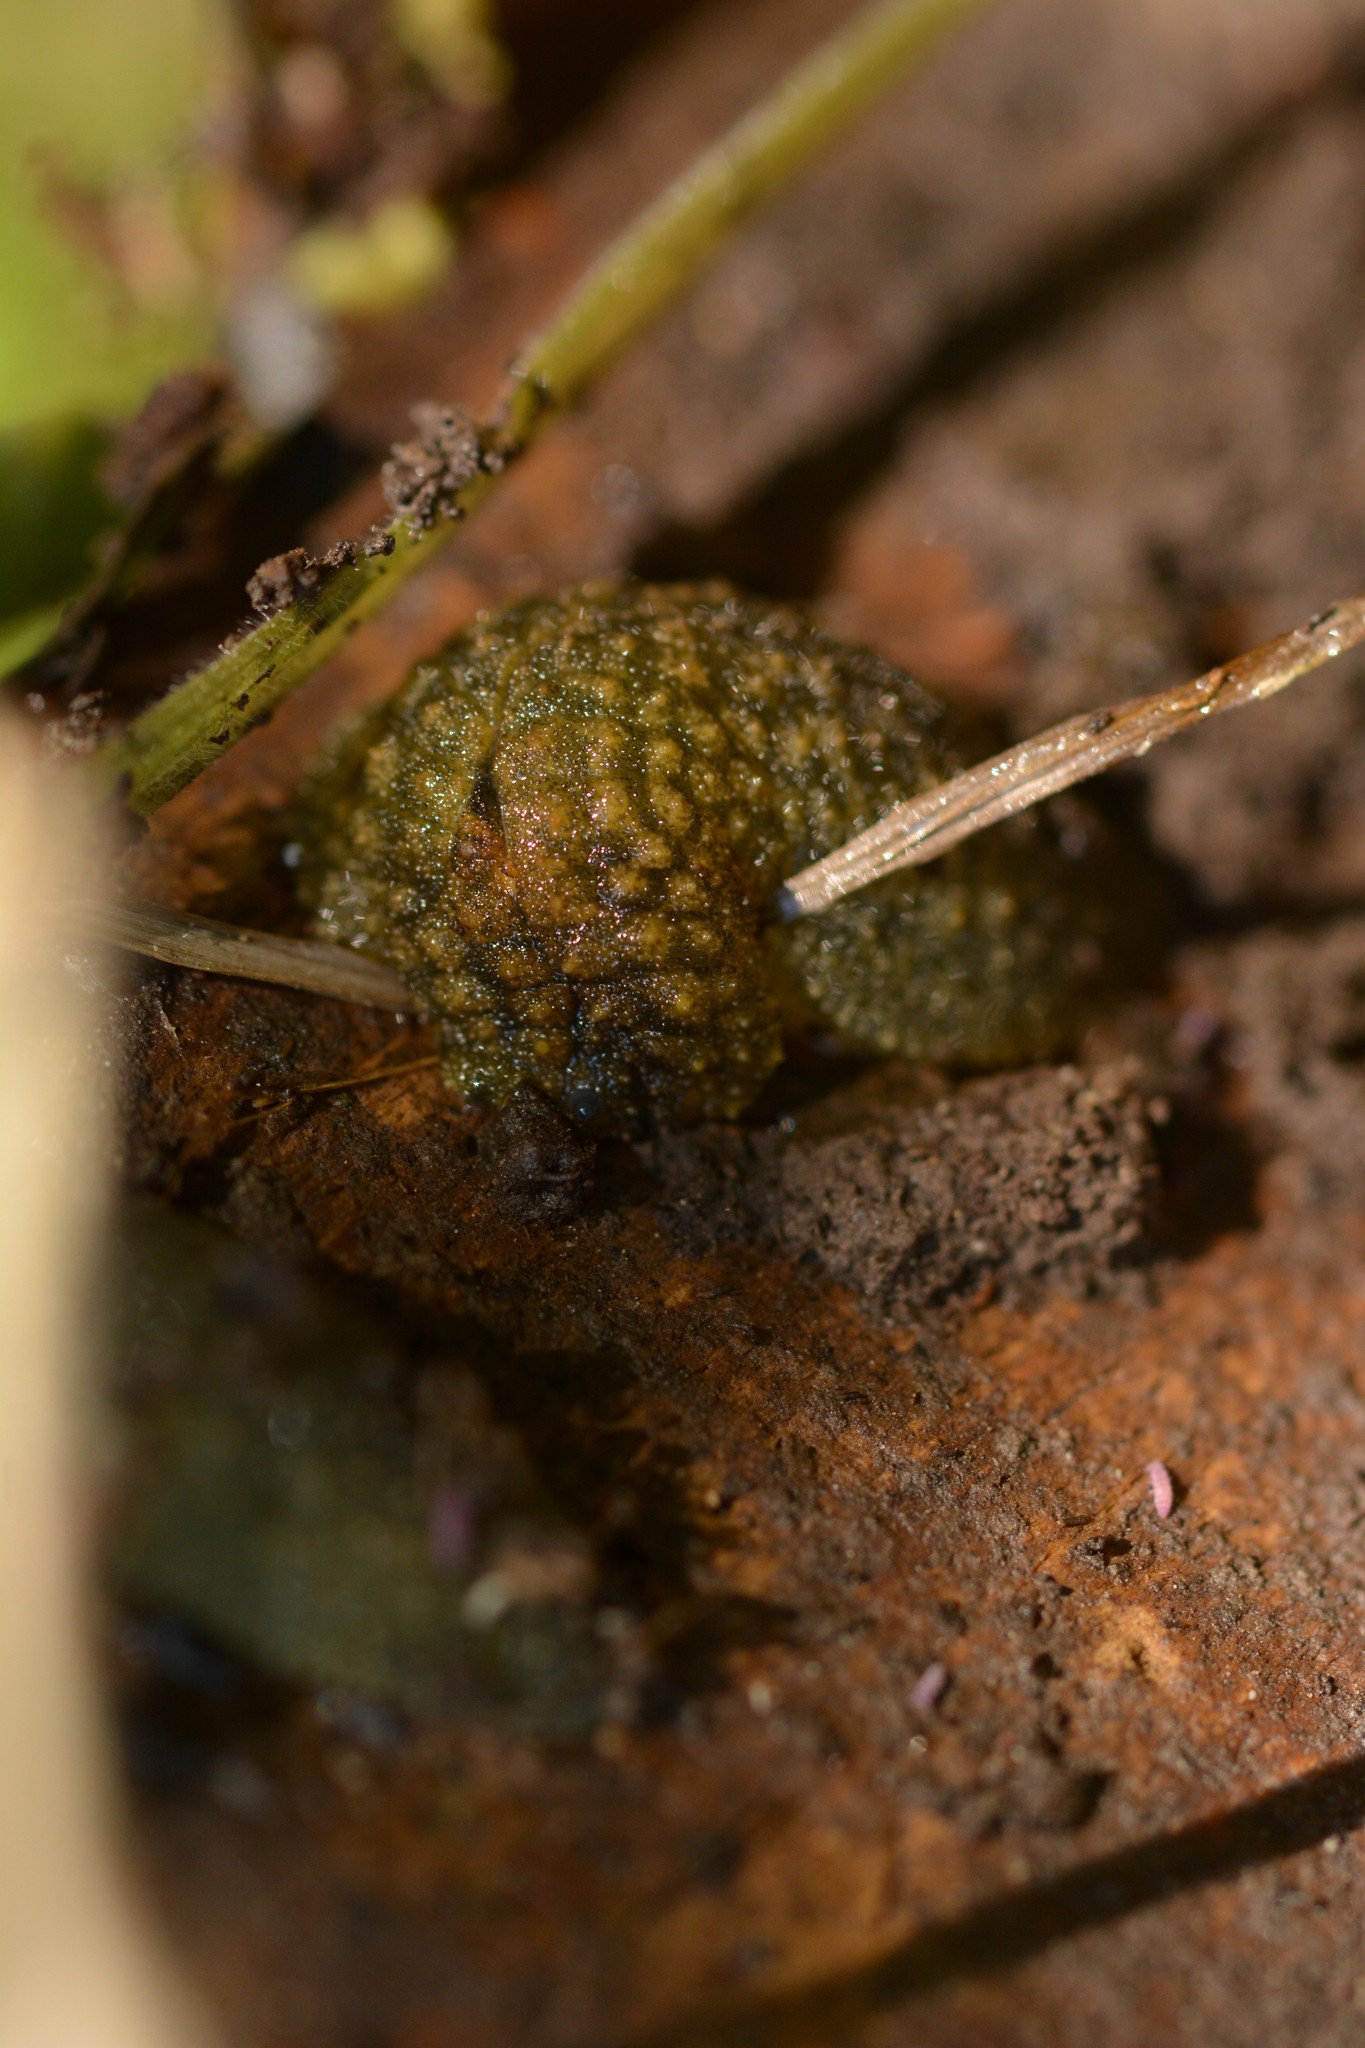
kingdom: Animalia
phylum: Mollusca
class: Gastropoda
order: Stylommatophora
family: Athoracophoridae
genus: Athoracophorus
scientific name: Athoracophorus papillatus
